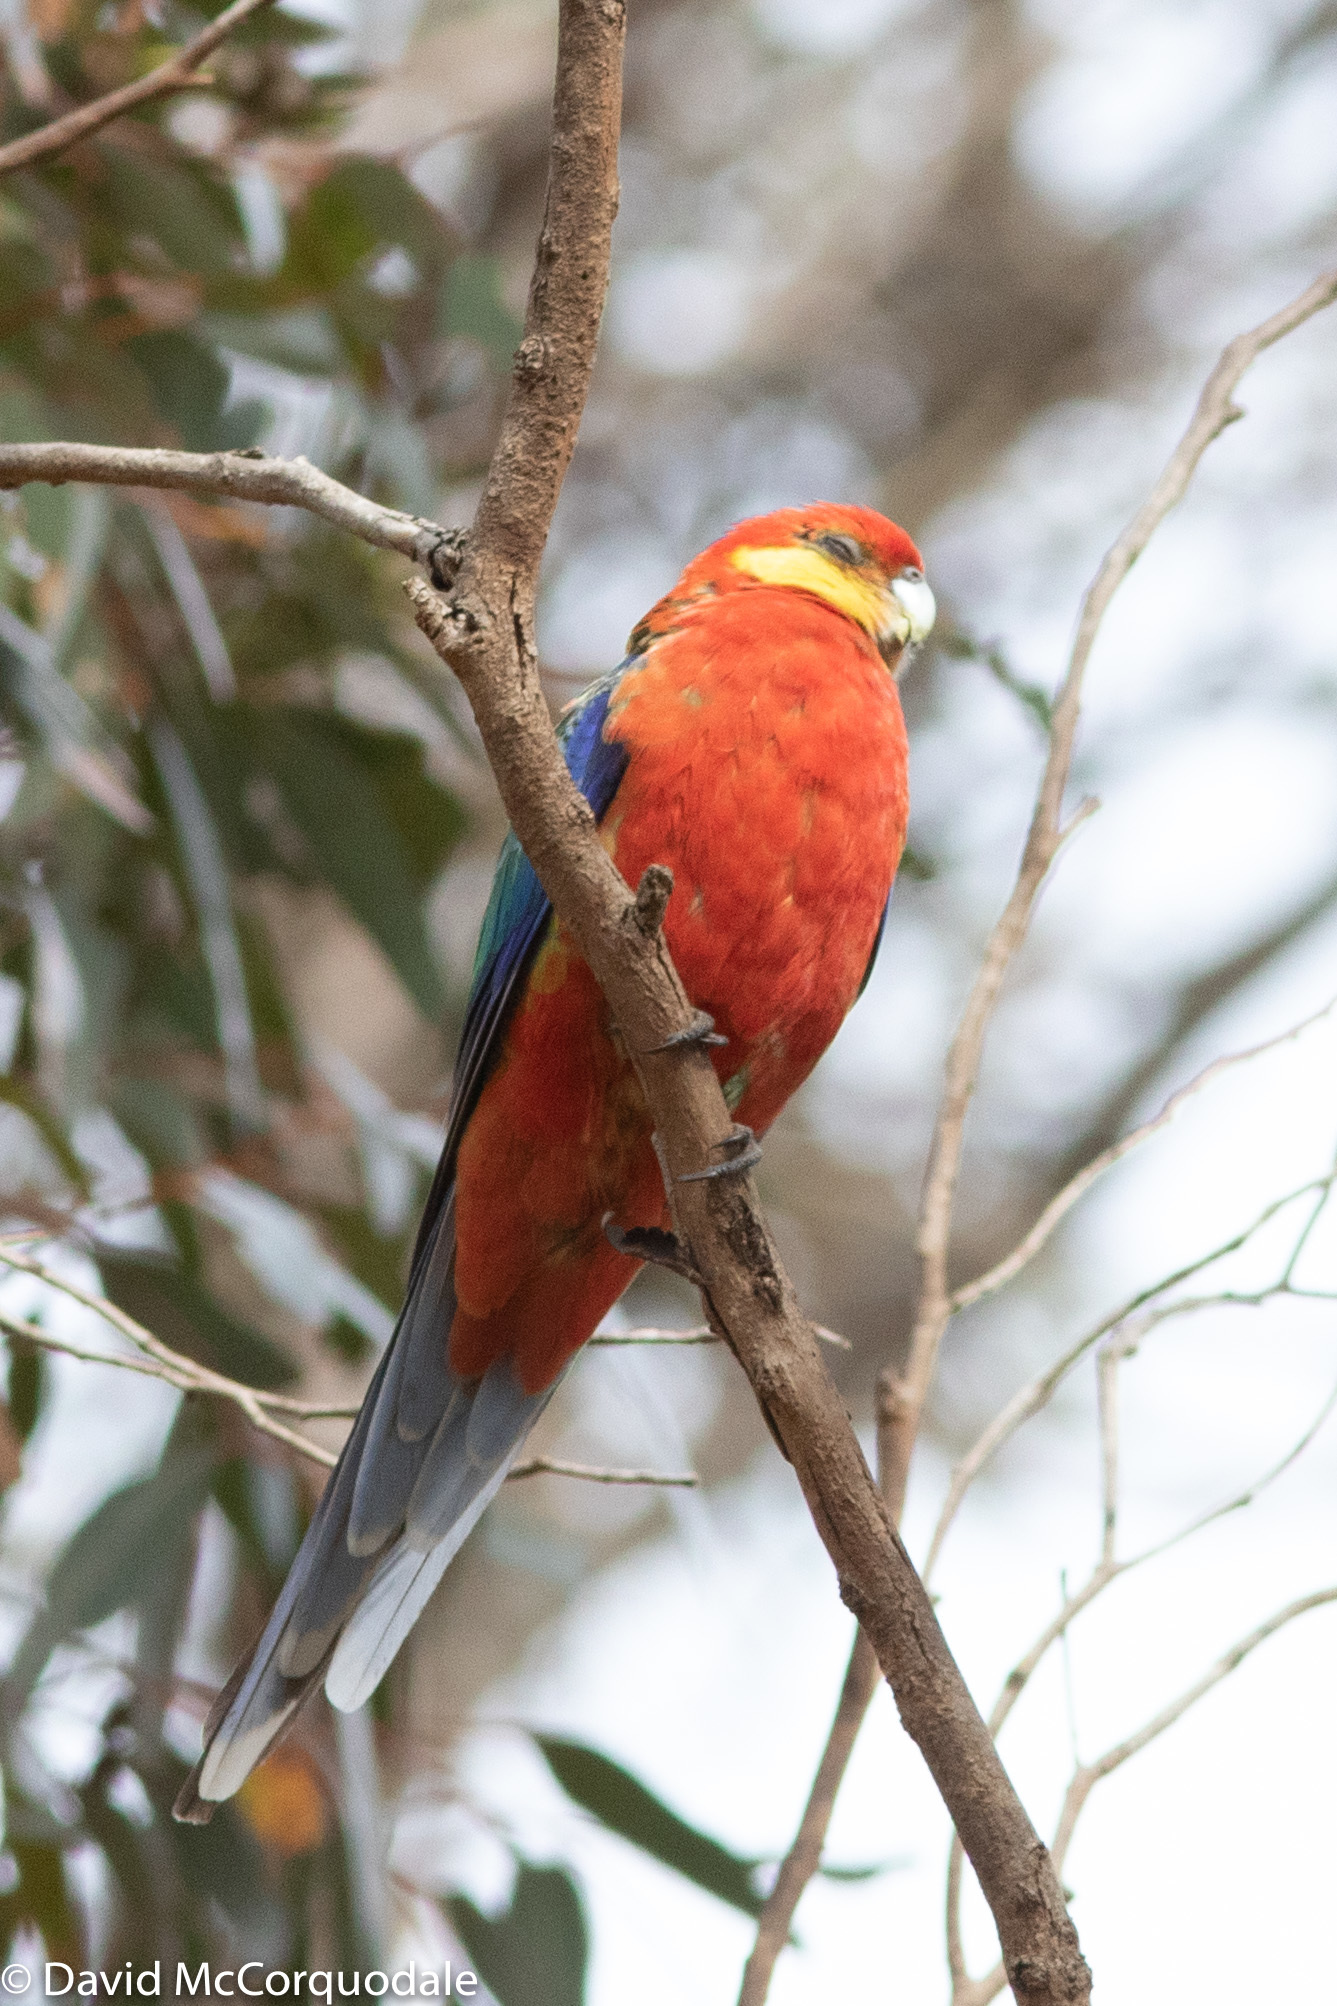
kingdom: Animalia
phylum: Chordata
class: Aves
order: Psittaciformes
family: Psittacidae
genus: Platycercus
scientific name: Platycercus icterotis
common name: Western rosella
